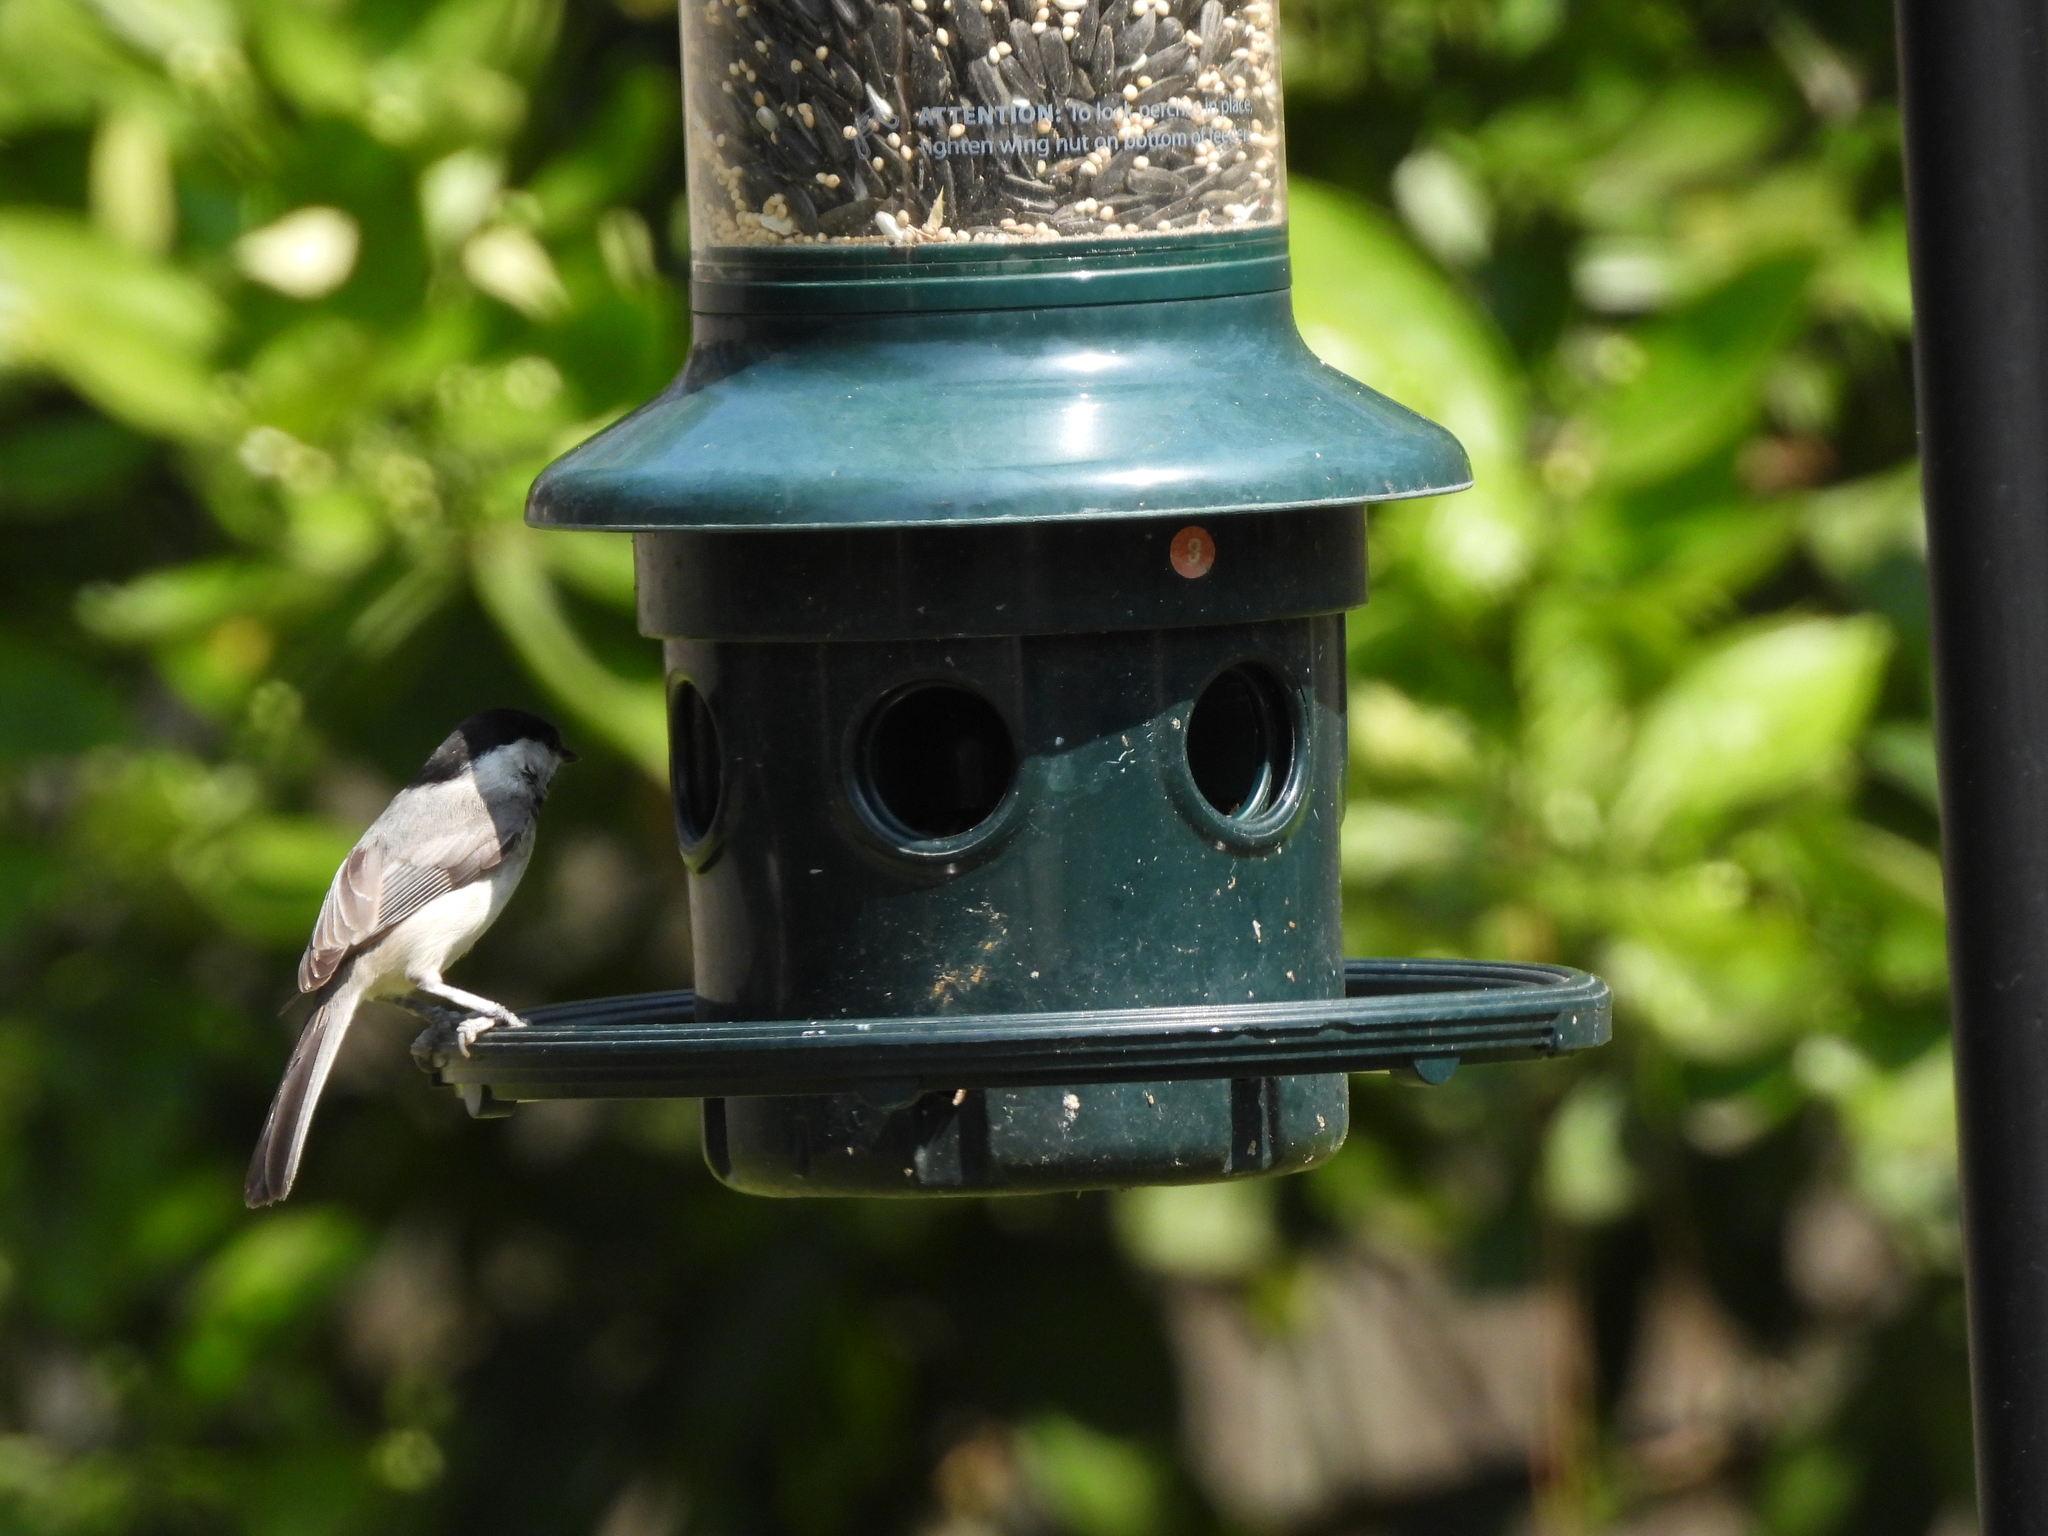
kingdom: Animalia
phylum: Chordata
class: Aves
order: Passeriformes
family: Paridae
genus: Poecile
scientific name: Poecile carolinensis
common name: Carolina chickadee
